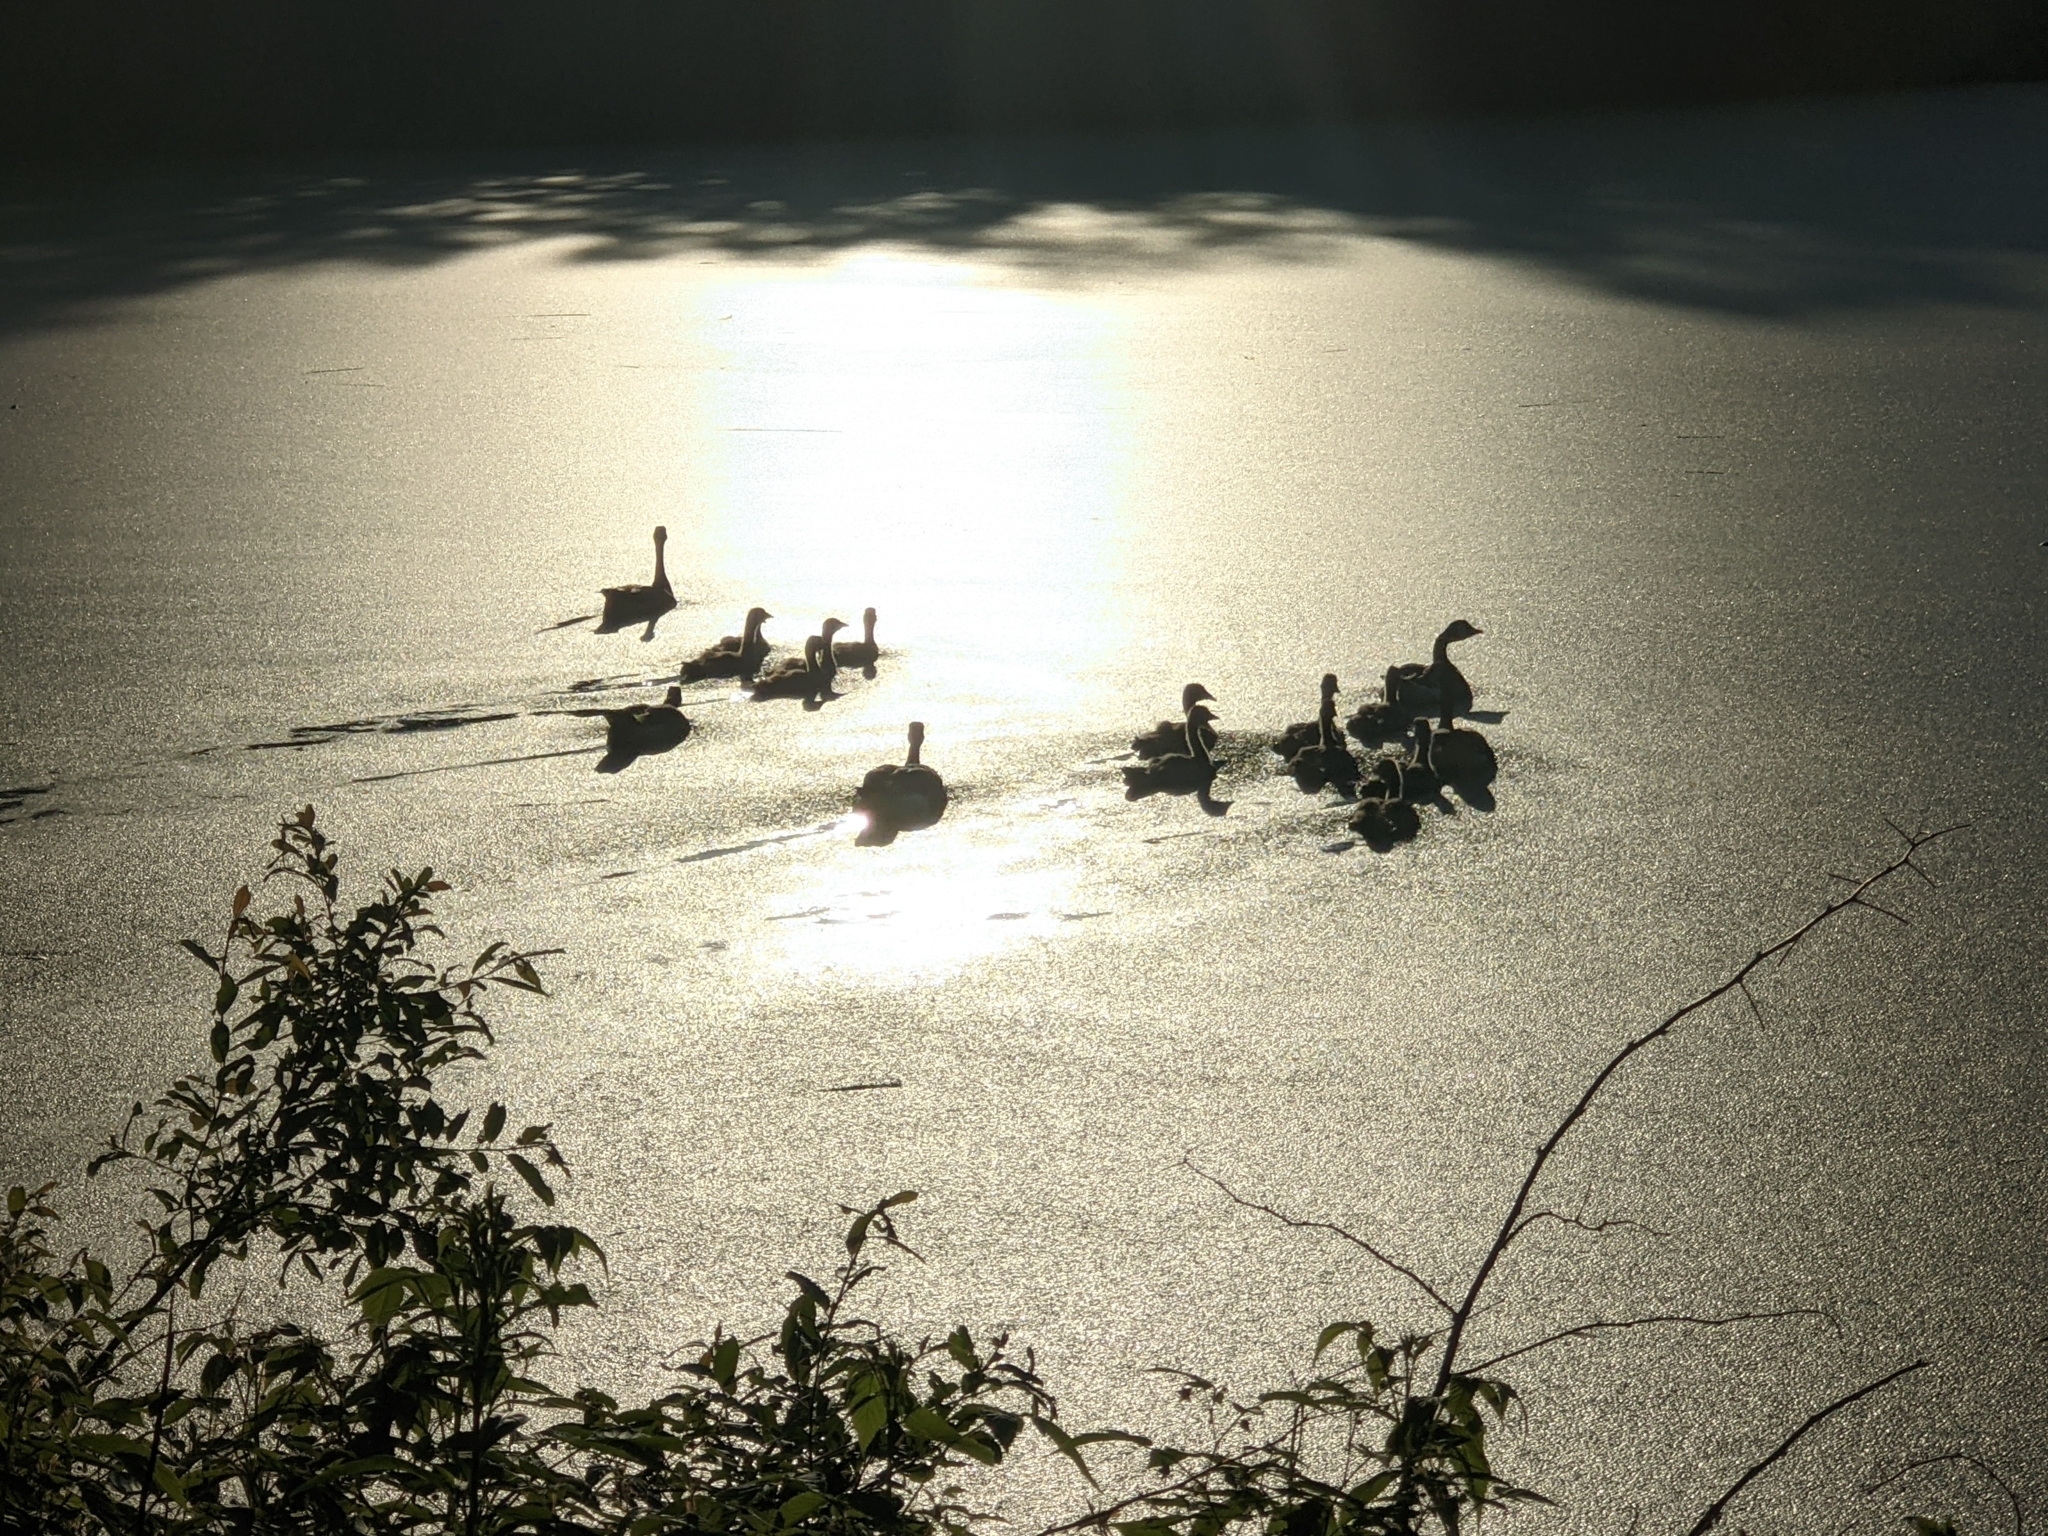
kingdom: Animalia
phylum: Chordata
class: Aves
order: Anseriformes
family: Anatidae
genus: Branta
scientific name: Branta canadensis
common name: Canada goose
